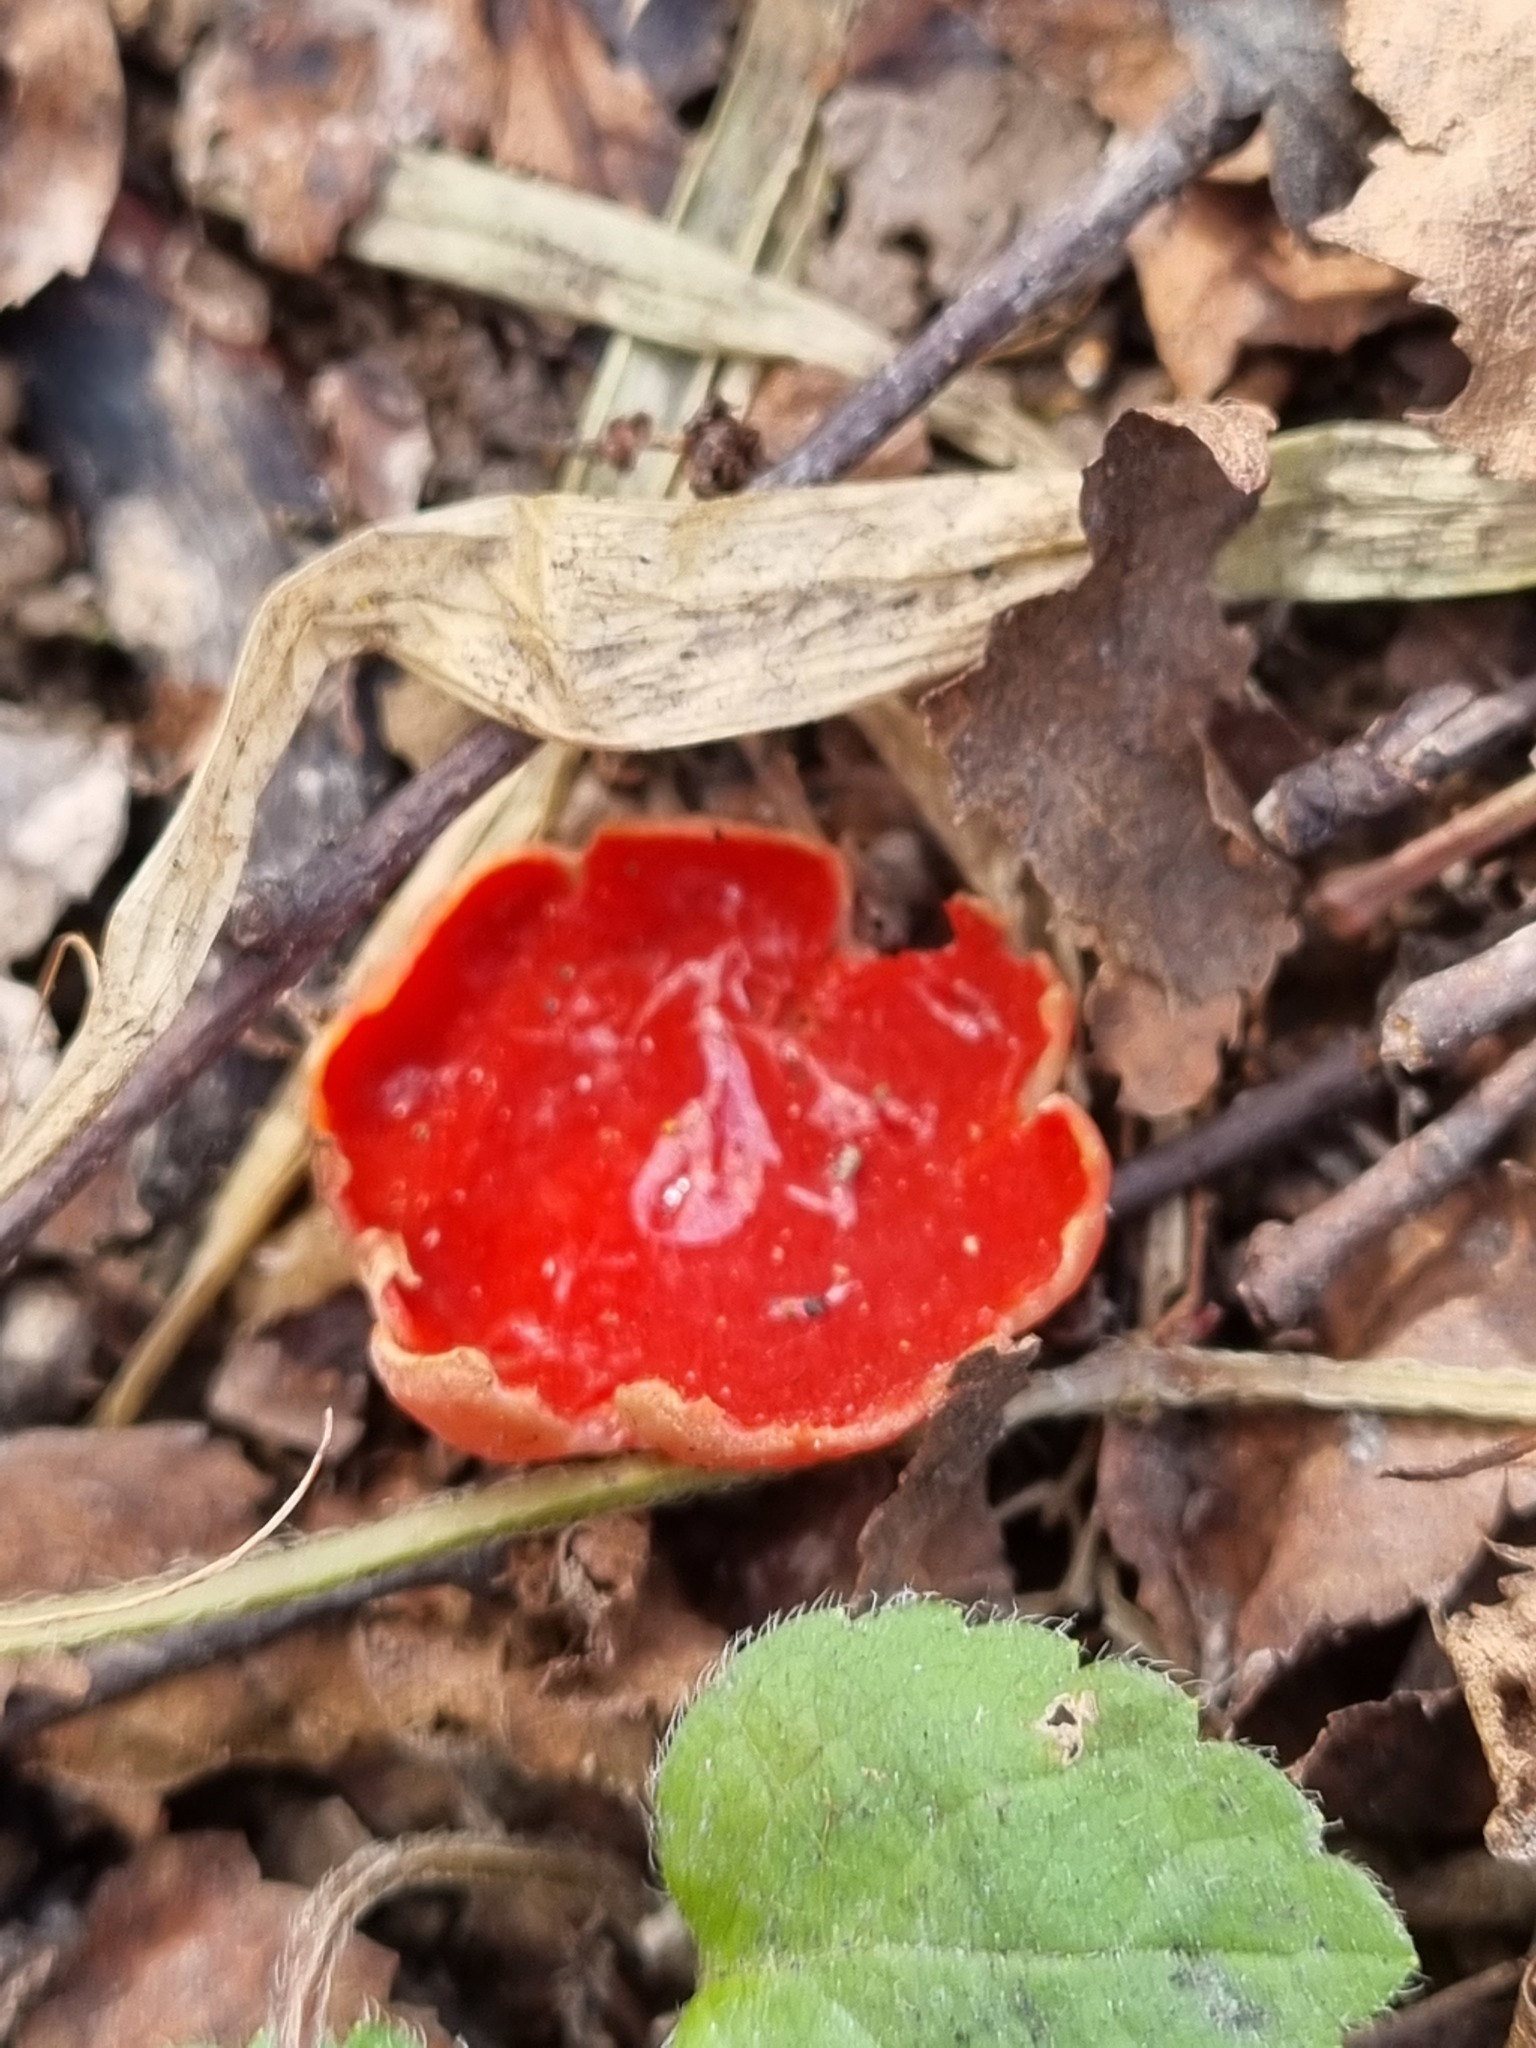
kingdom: Fungi
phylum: Ascomycota
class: Pezizomycetes
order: Pezizales
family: Sarcoscyphaceae
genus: Sarcoscypha
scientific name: Sarcoscypha austriaca
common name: Scarlet elfcup
